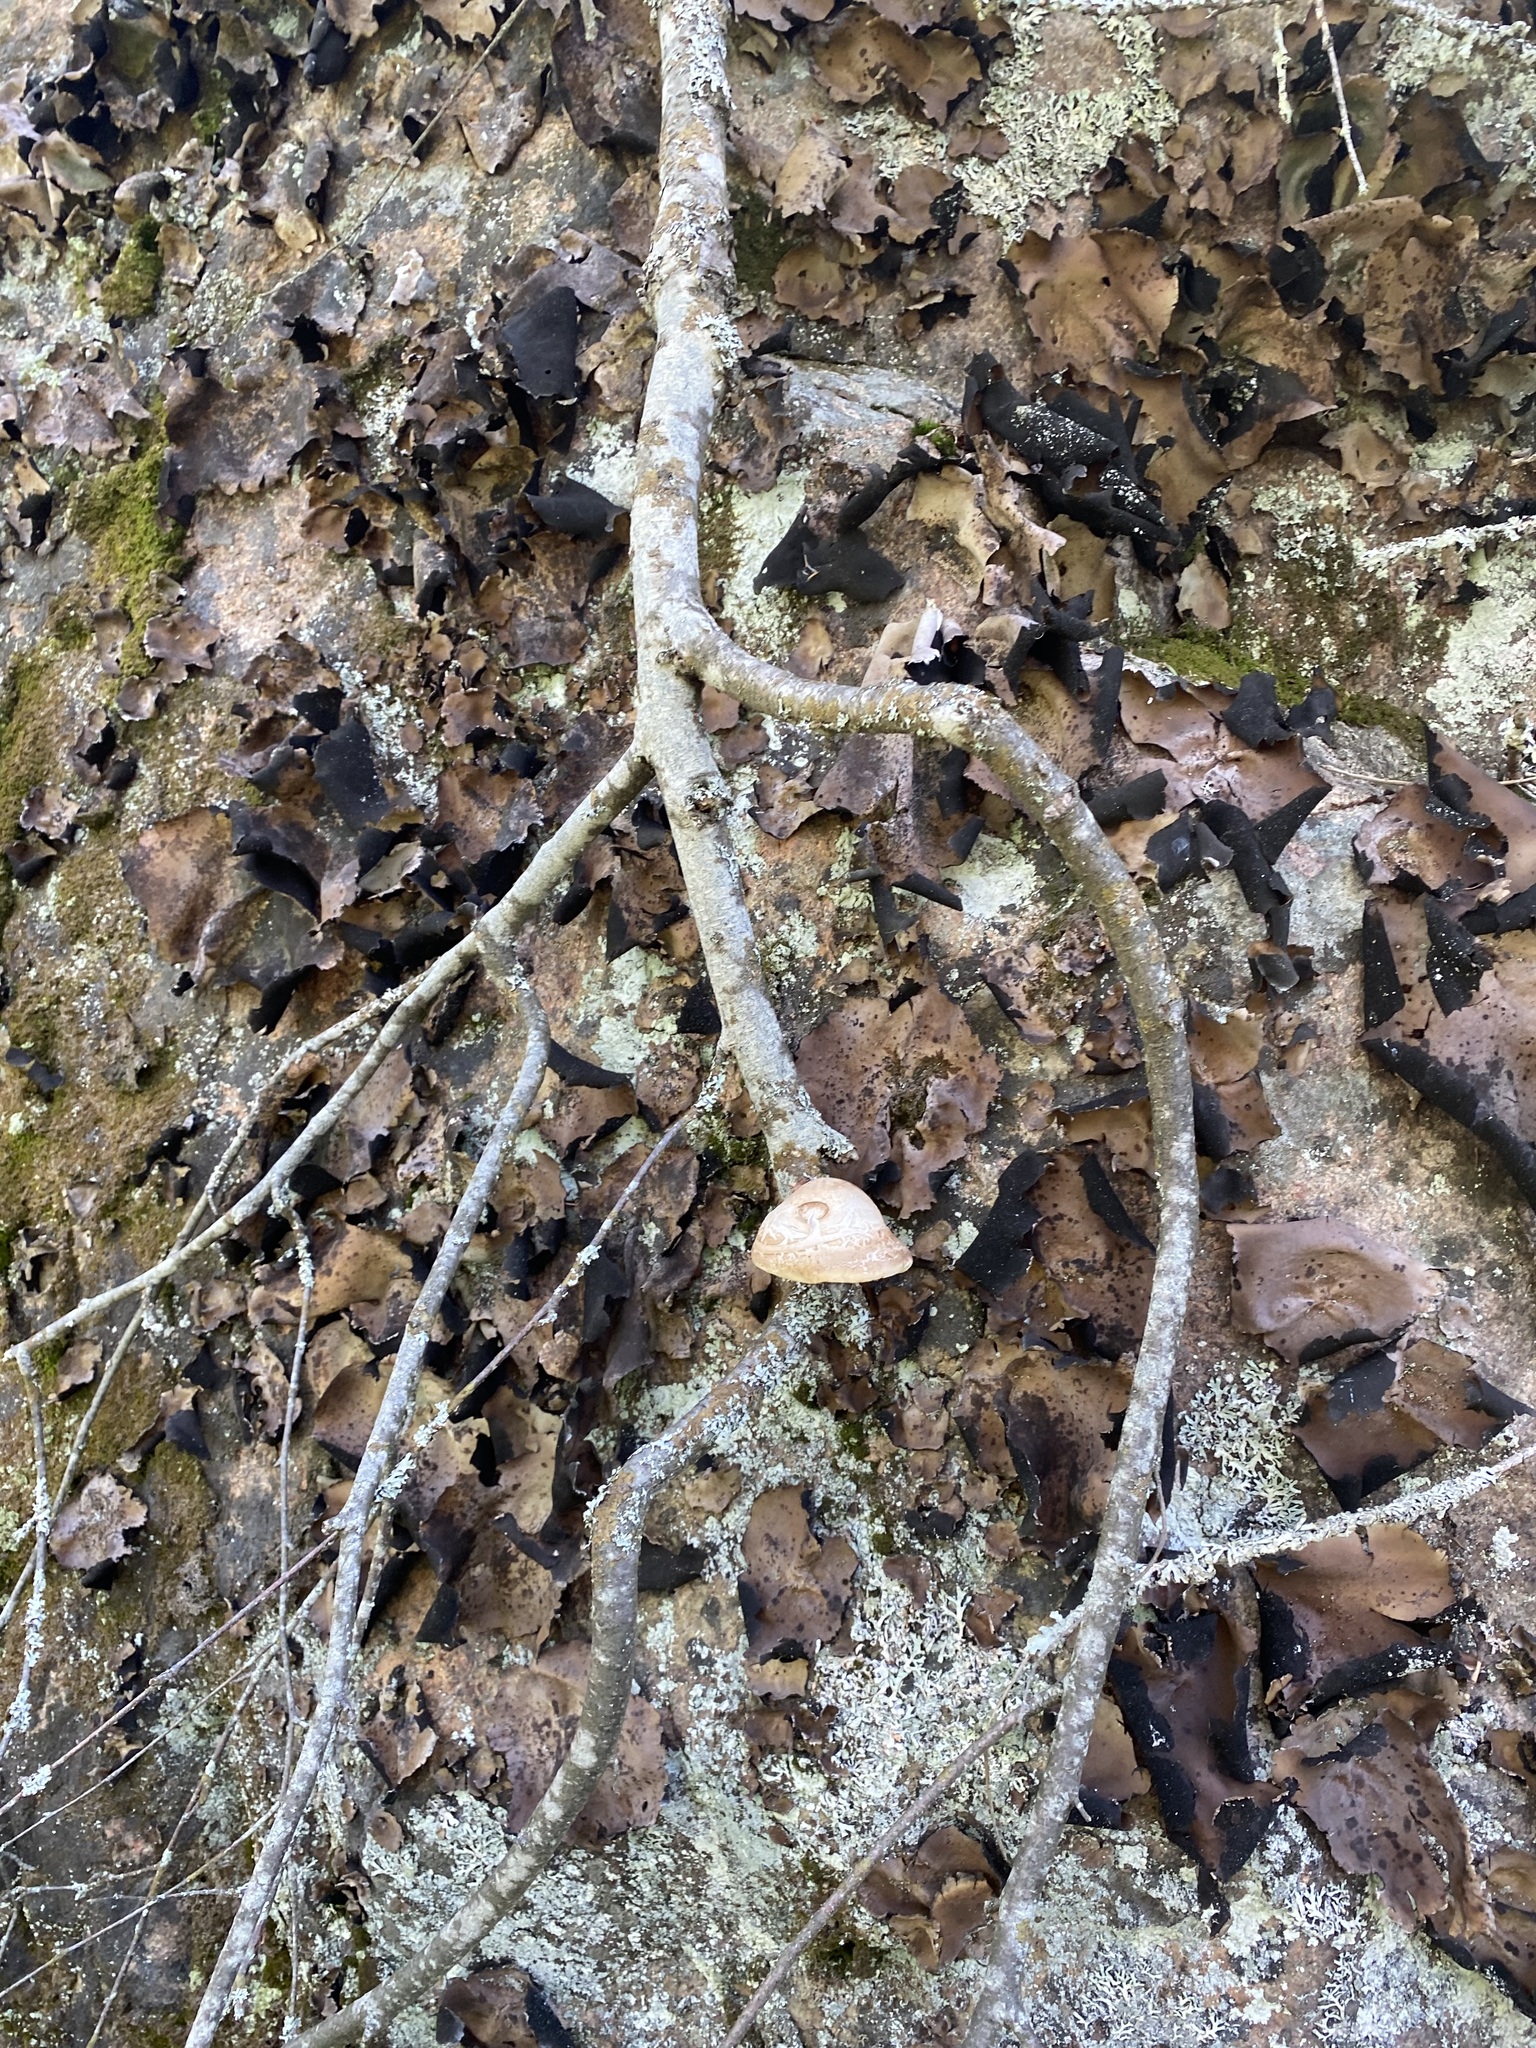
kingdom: Fungi
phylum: Basidiomycota
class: Agaricomycetes
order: Polyporales
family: Fomitopsidaceae
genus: Fomitopsis
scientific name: Fomitopsis betulina
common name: Birch polypore
